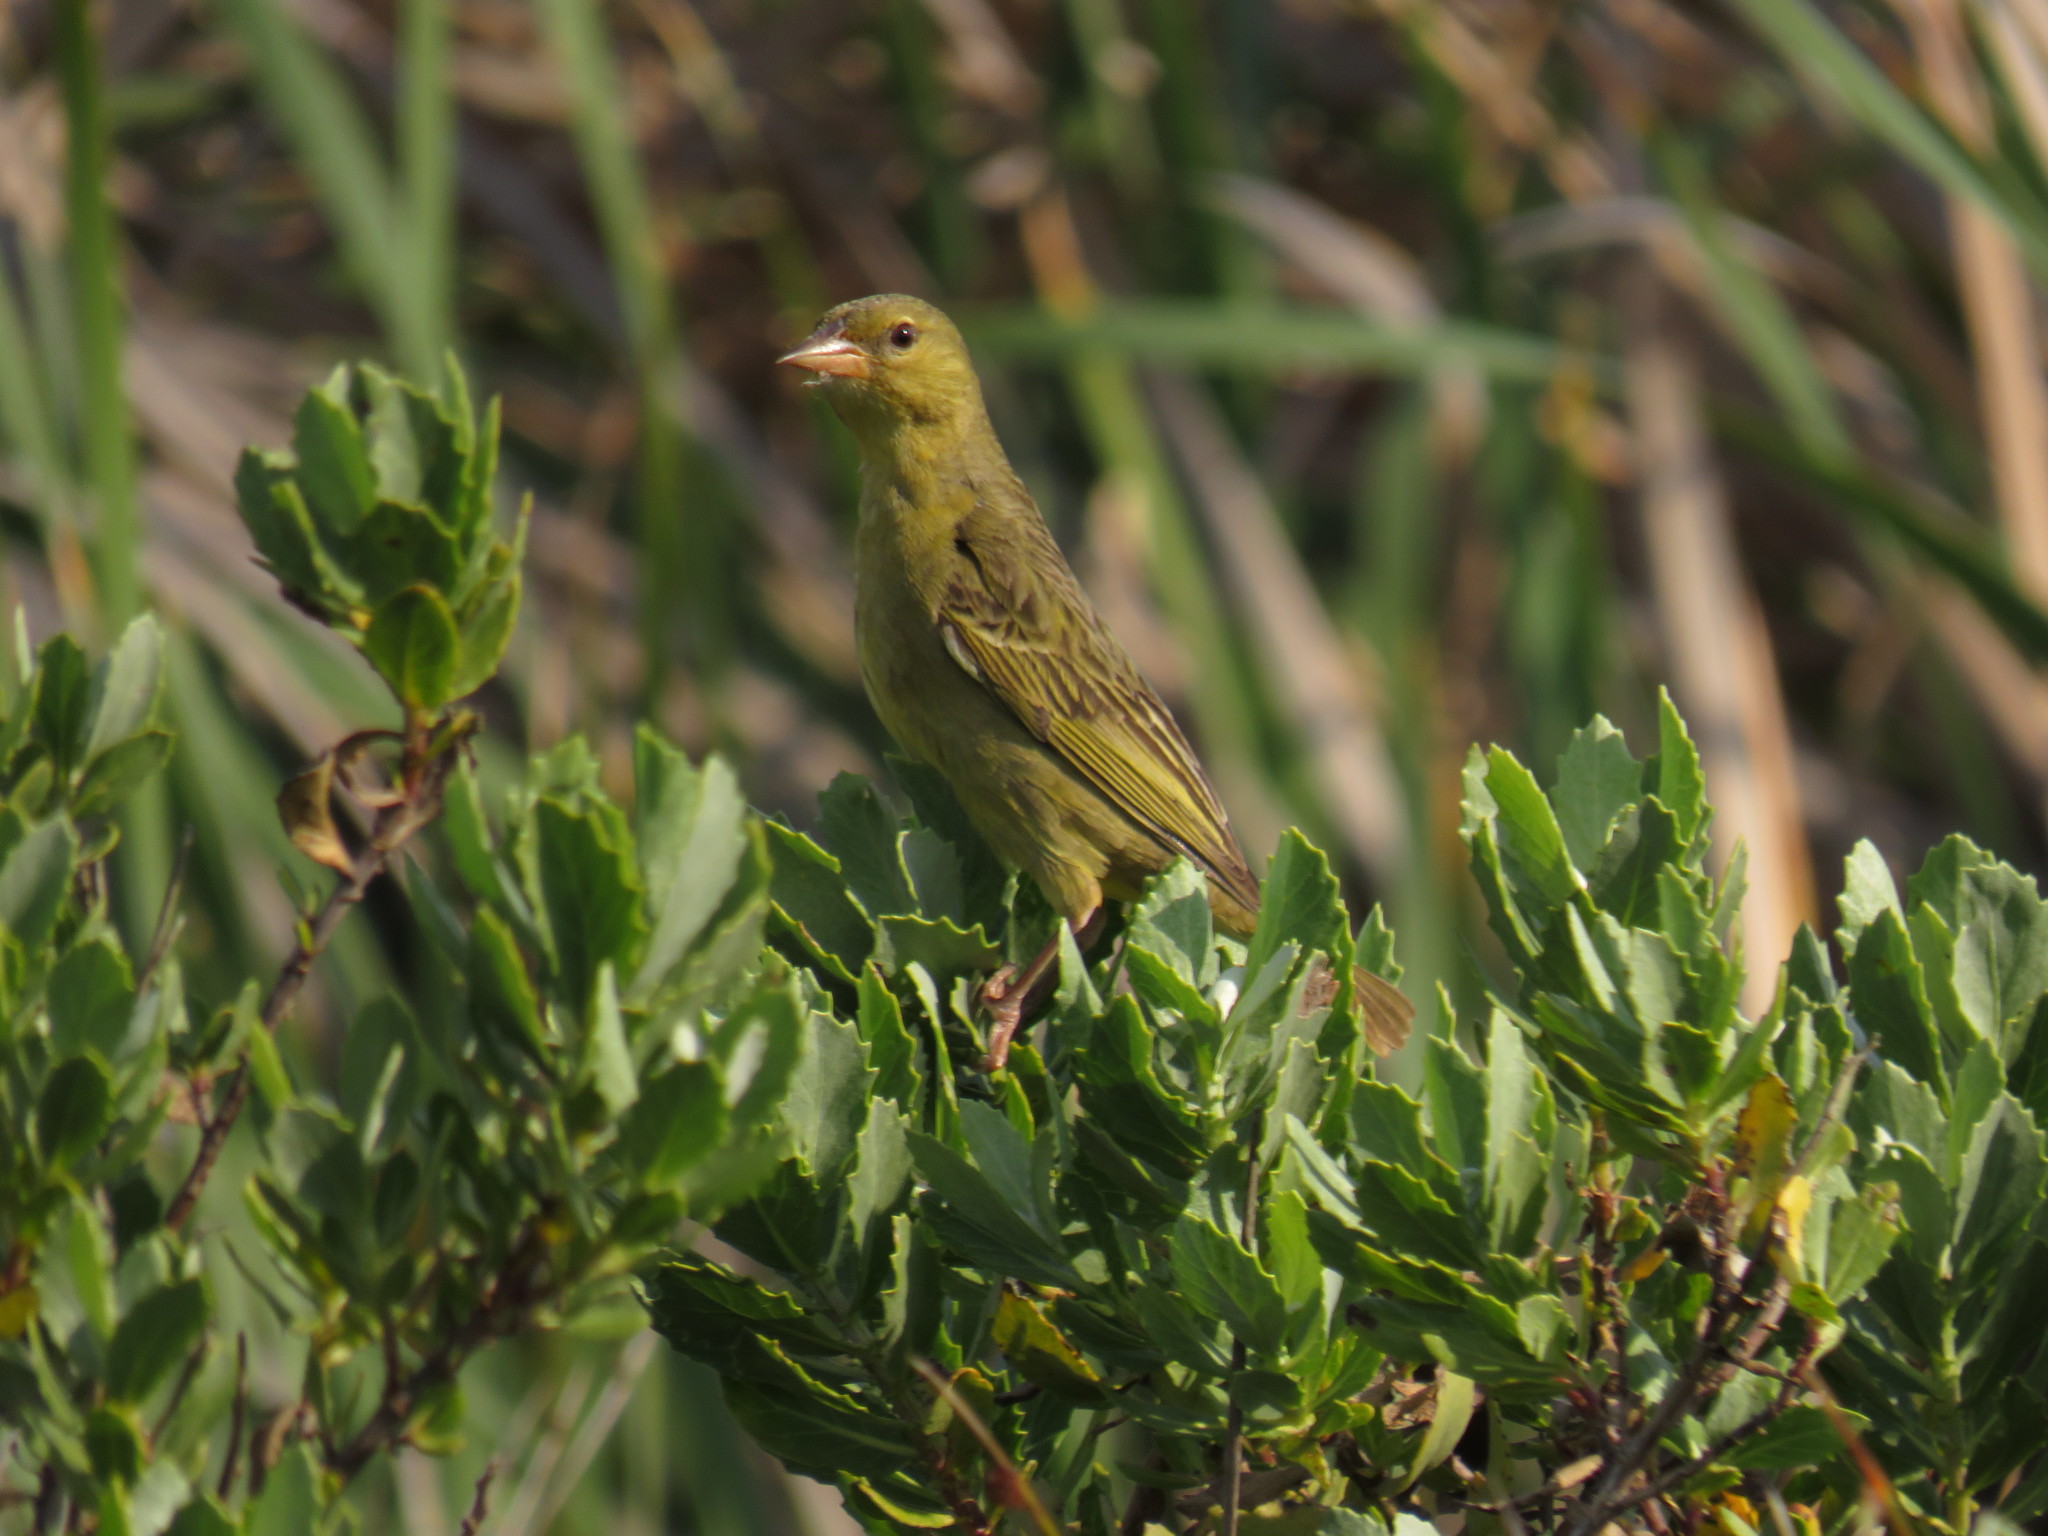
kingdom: Animalia
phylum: Chordata
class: Aves
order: Passeriformes
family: Ploceidae
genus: Ploceus
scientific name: Ploceus capensis
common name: Cape weaver
